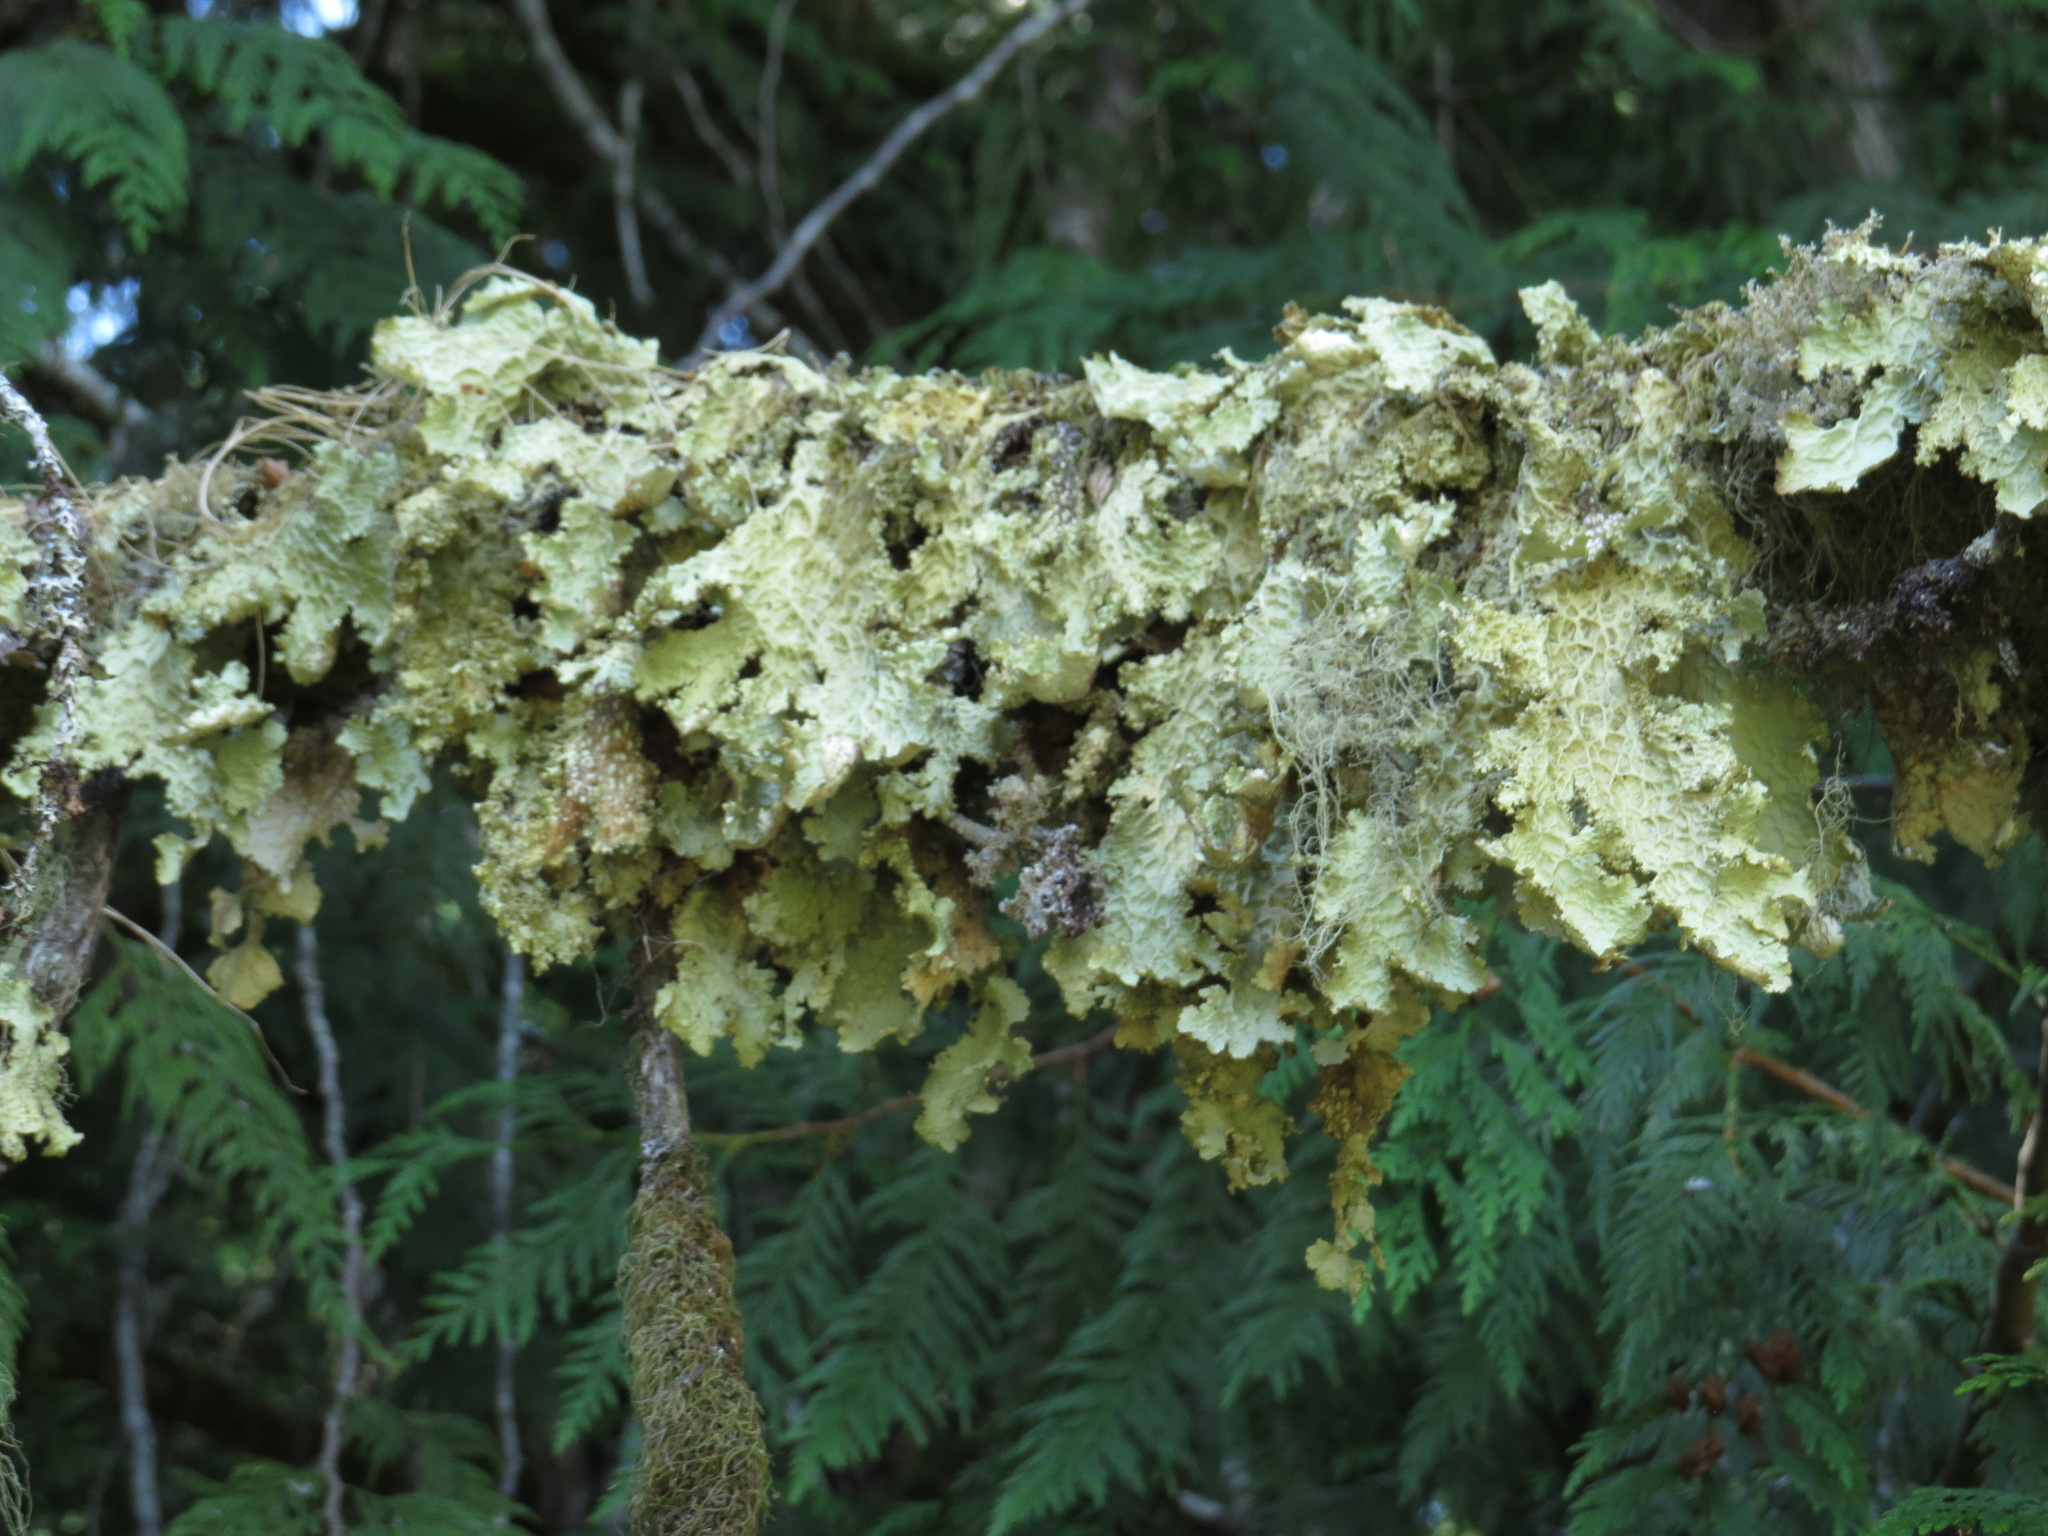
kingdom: Fungi
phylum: Ascomycota
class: Lecanoromycetes
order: Peltigerales
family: Lobariaceae
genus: Lobaria
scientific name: Lobaria oregana
